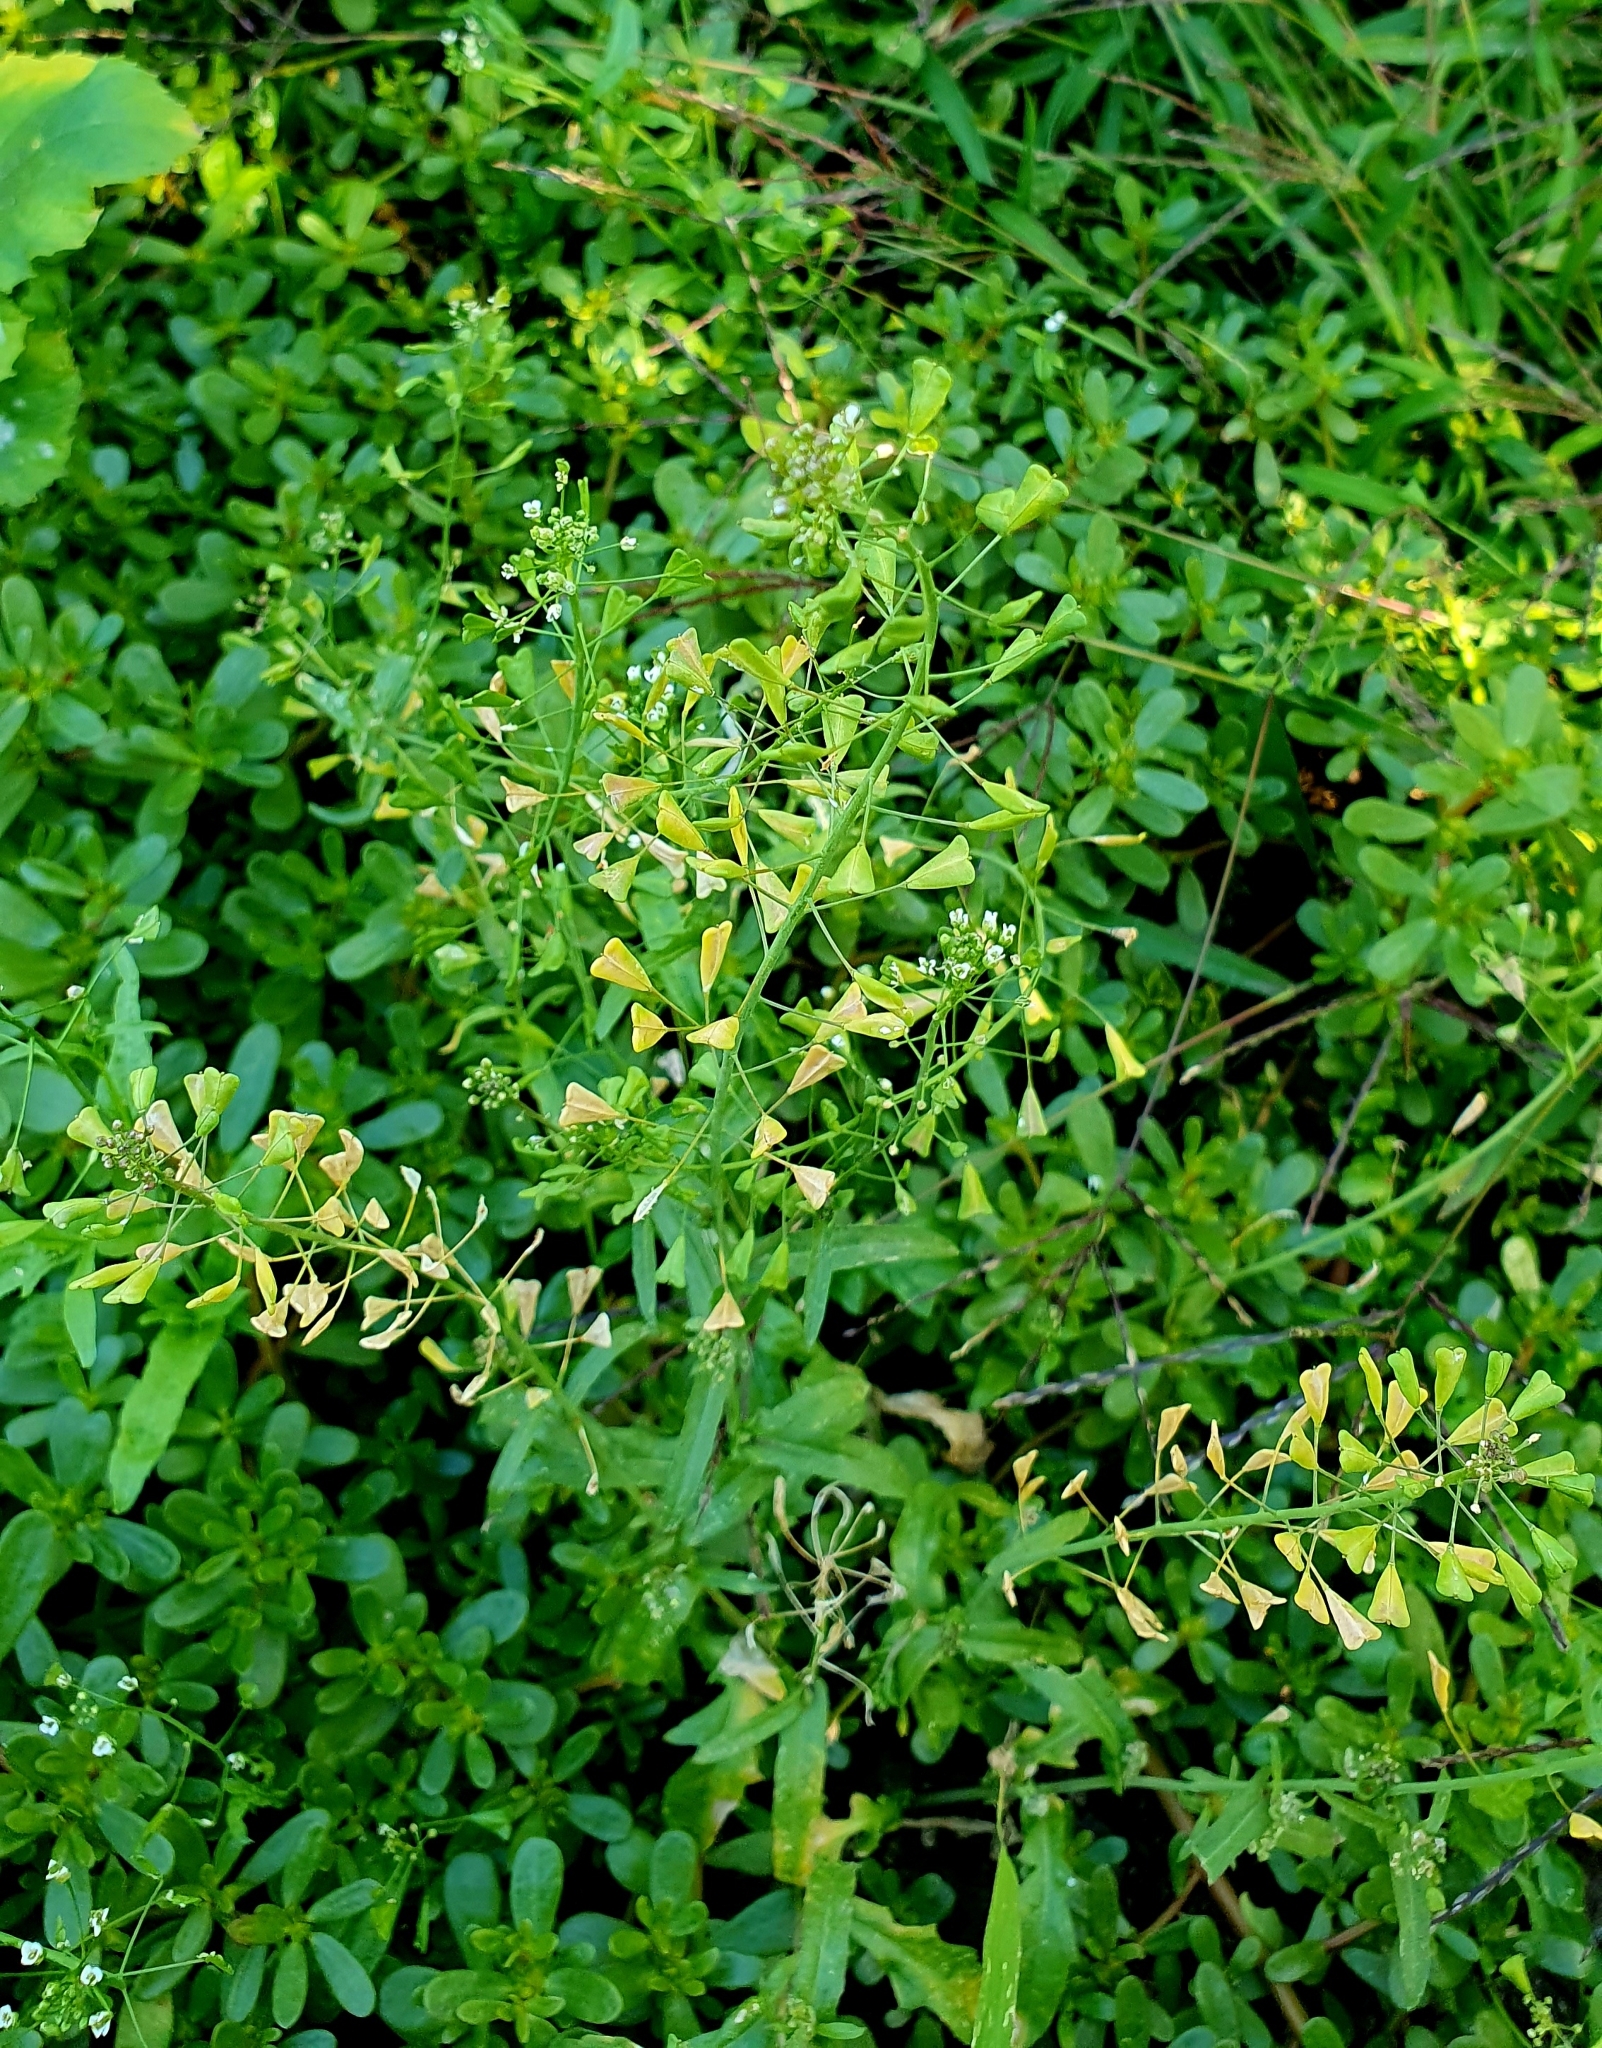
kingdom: Plantae
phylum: Tracheophyta
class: Magnoliopsida
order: Brassicales
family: Brassicaceae
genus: Capsella
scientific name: Capsella bursa-pastoris
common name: Shepherd's purse
